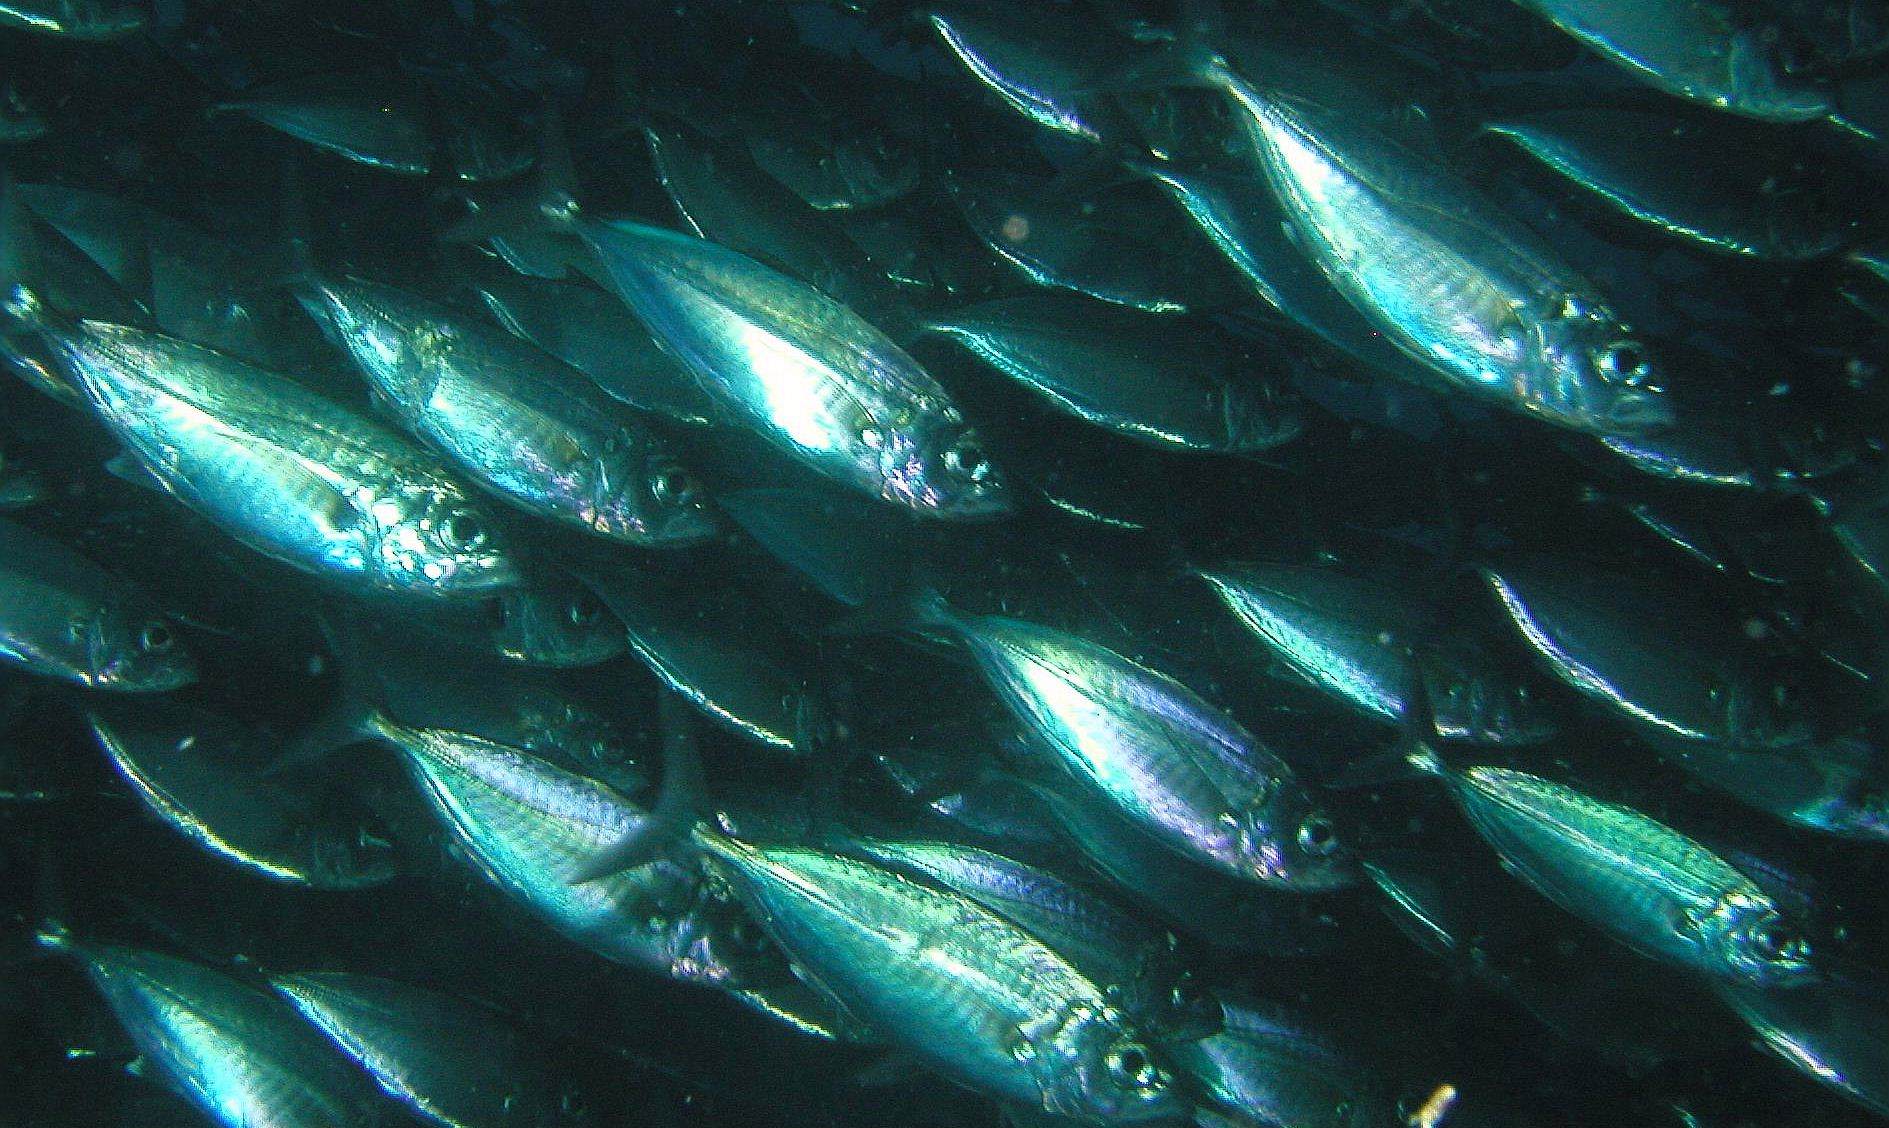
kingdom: Animalia
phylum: Chordata
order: Perciformes
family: Carangidae
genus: Selar
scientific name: Selar crumenophthalmus
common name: Bigeye scad
